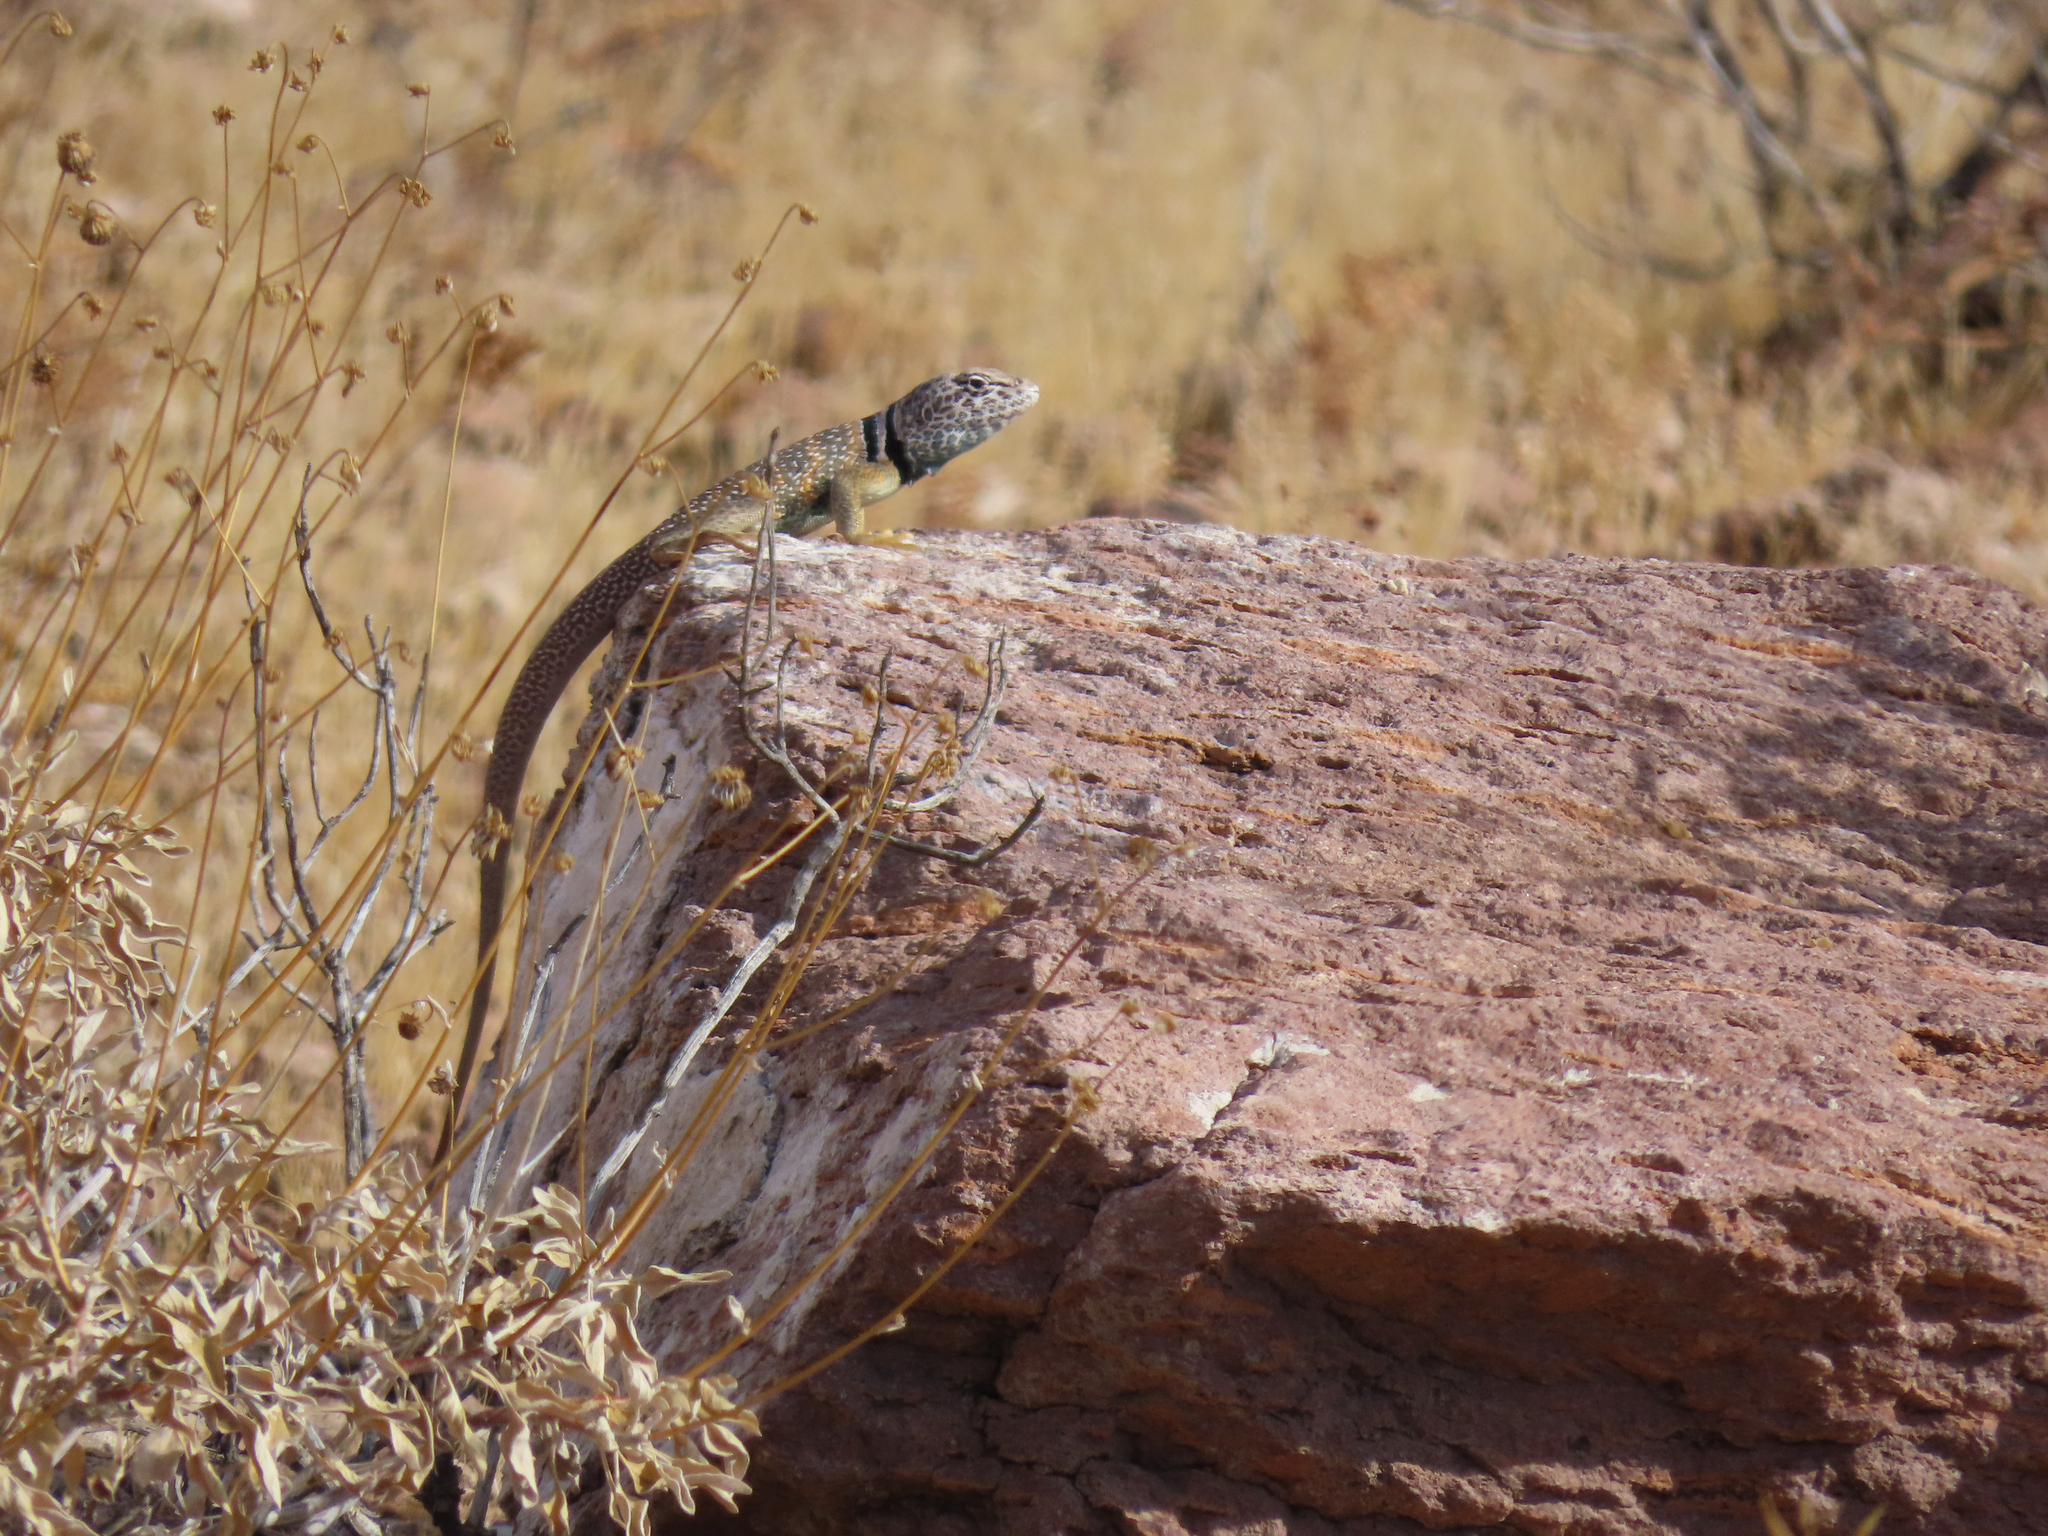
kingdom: Animalia
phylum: Chordata
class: Squamata
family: Crotaphytidae
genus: Crotaphytus
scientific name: Crotaphytus bicinctores
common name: Mojave black-collared lizard
